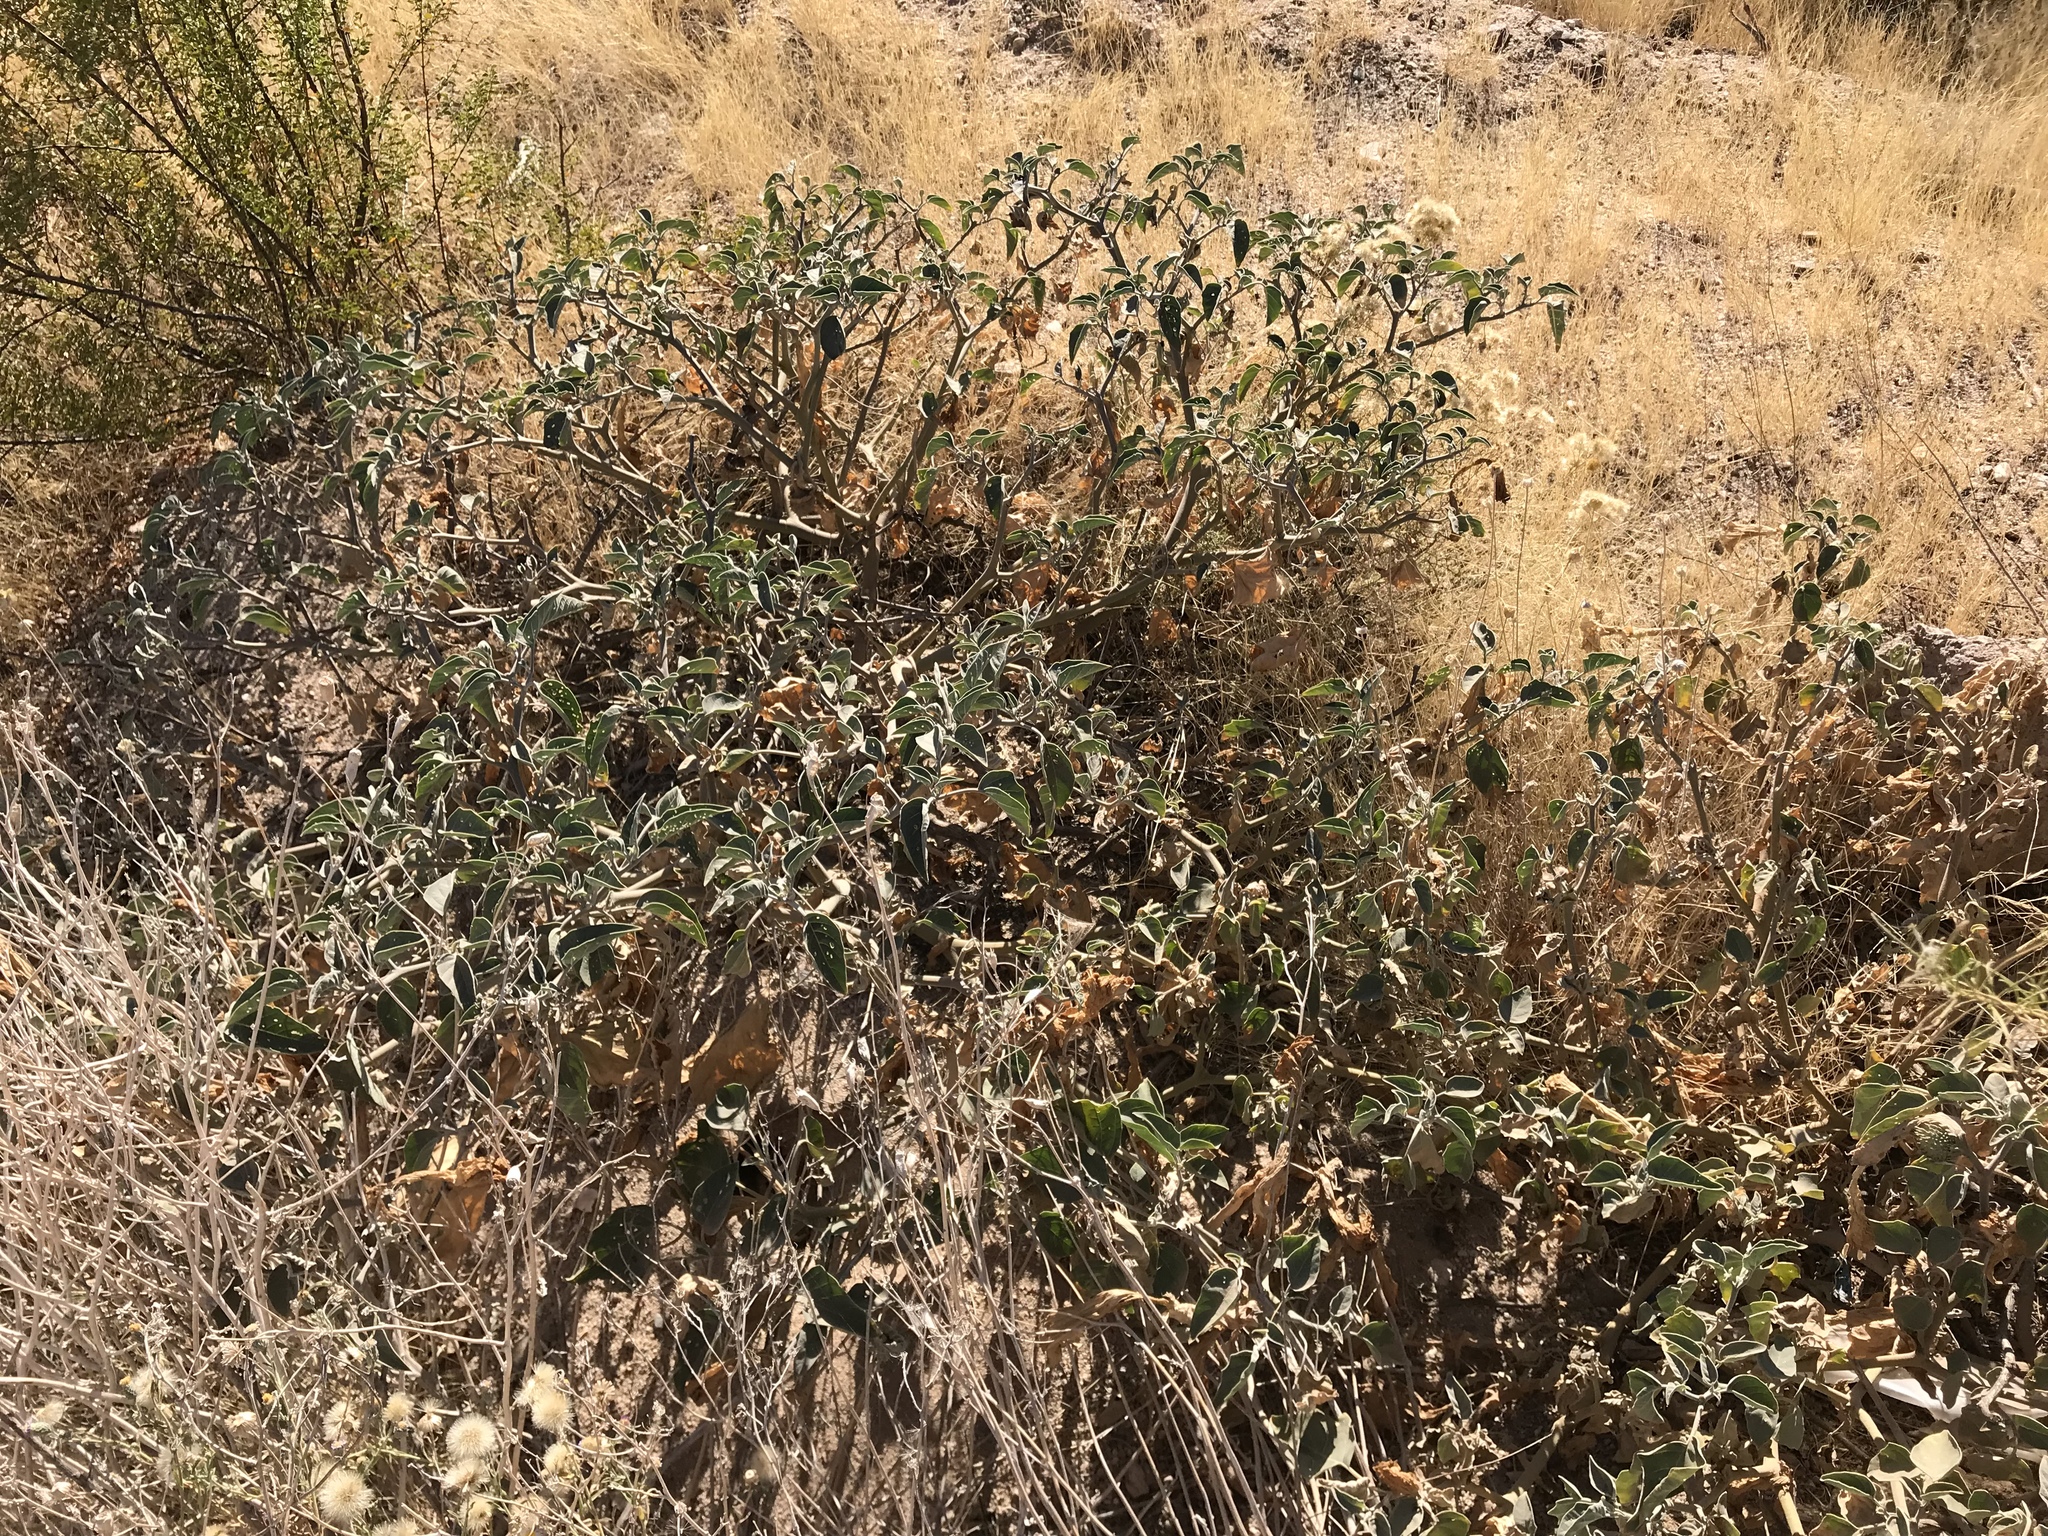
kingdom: Plantae
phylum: Tracheophyta
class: Magnoliopsida
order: Solanales
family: Solanaceae
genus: Datura
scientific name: Datura wrightii
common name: Sacred thorn-apple
